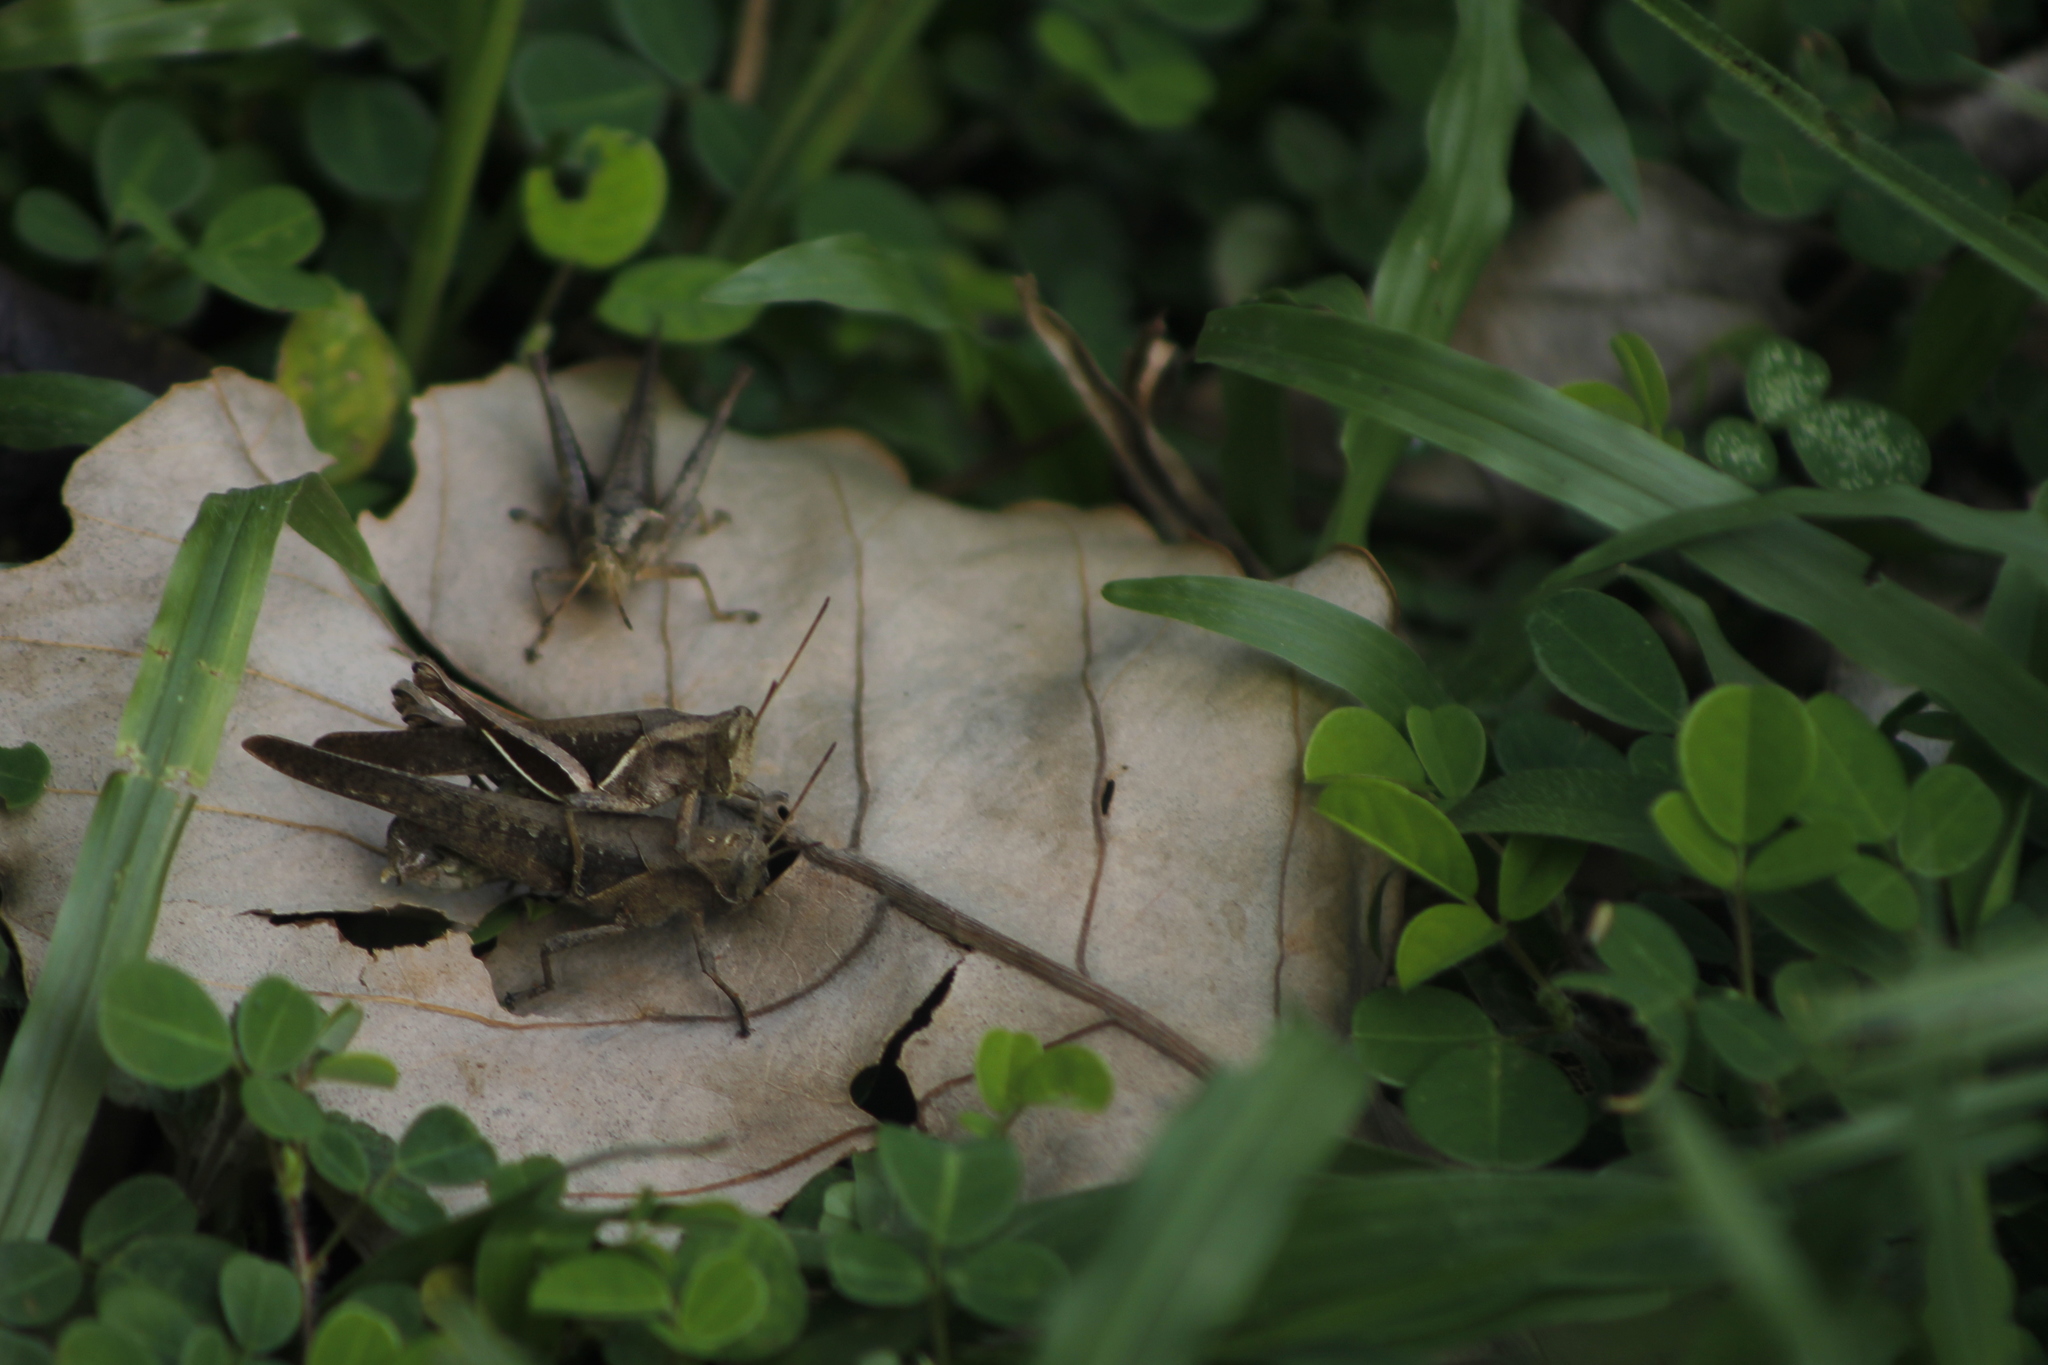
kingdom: Animalia
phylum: Arthropoda
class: Insecta
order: Orthoptera
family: Acrididae
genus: Abracris
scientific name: Abracris flavolineata
